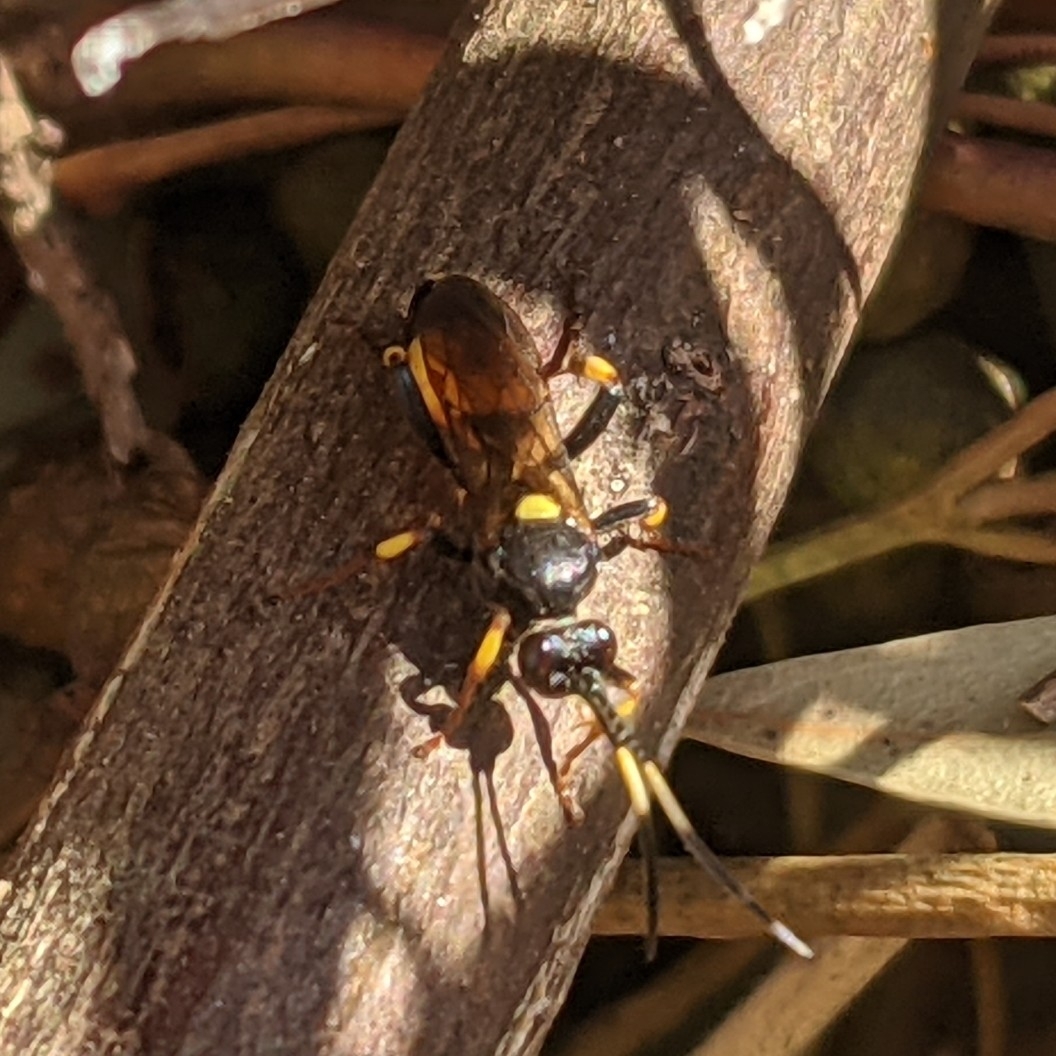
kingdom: Animalia
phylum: Arthropoda
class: Insecta
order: Hymenoptera
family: Ichneumonidae
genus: Ichneumon
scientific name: Ichneumon stramentor
